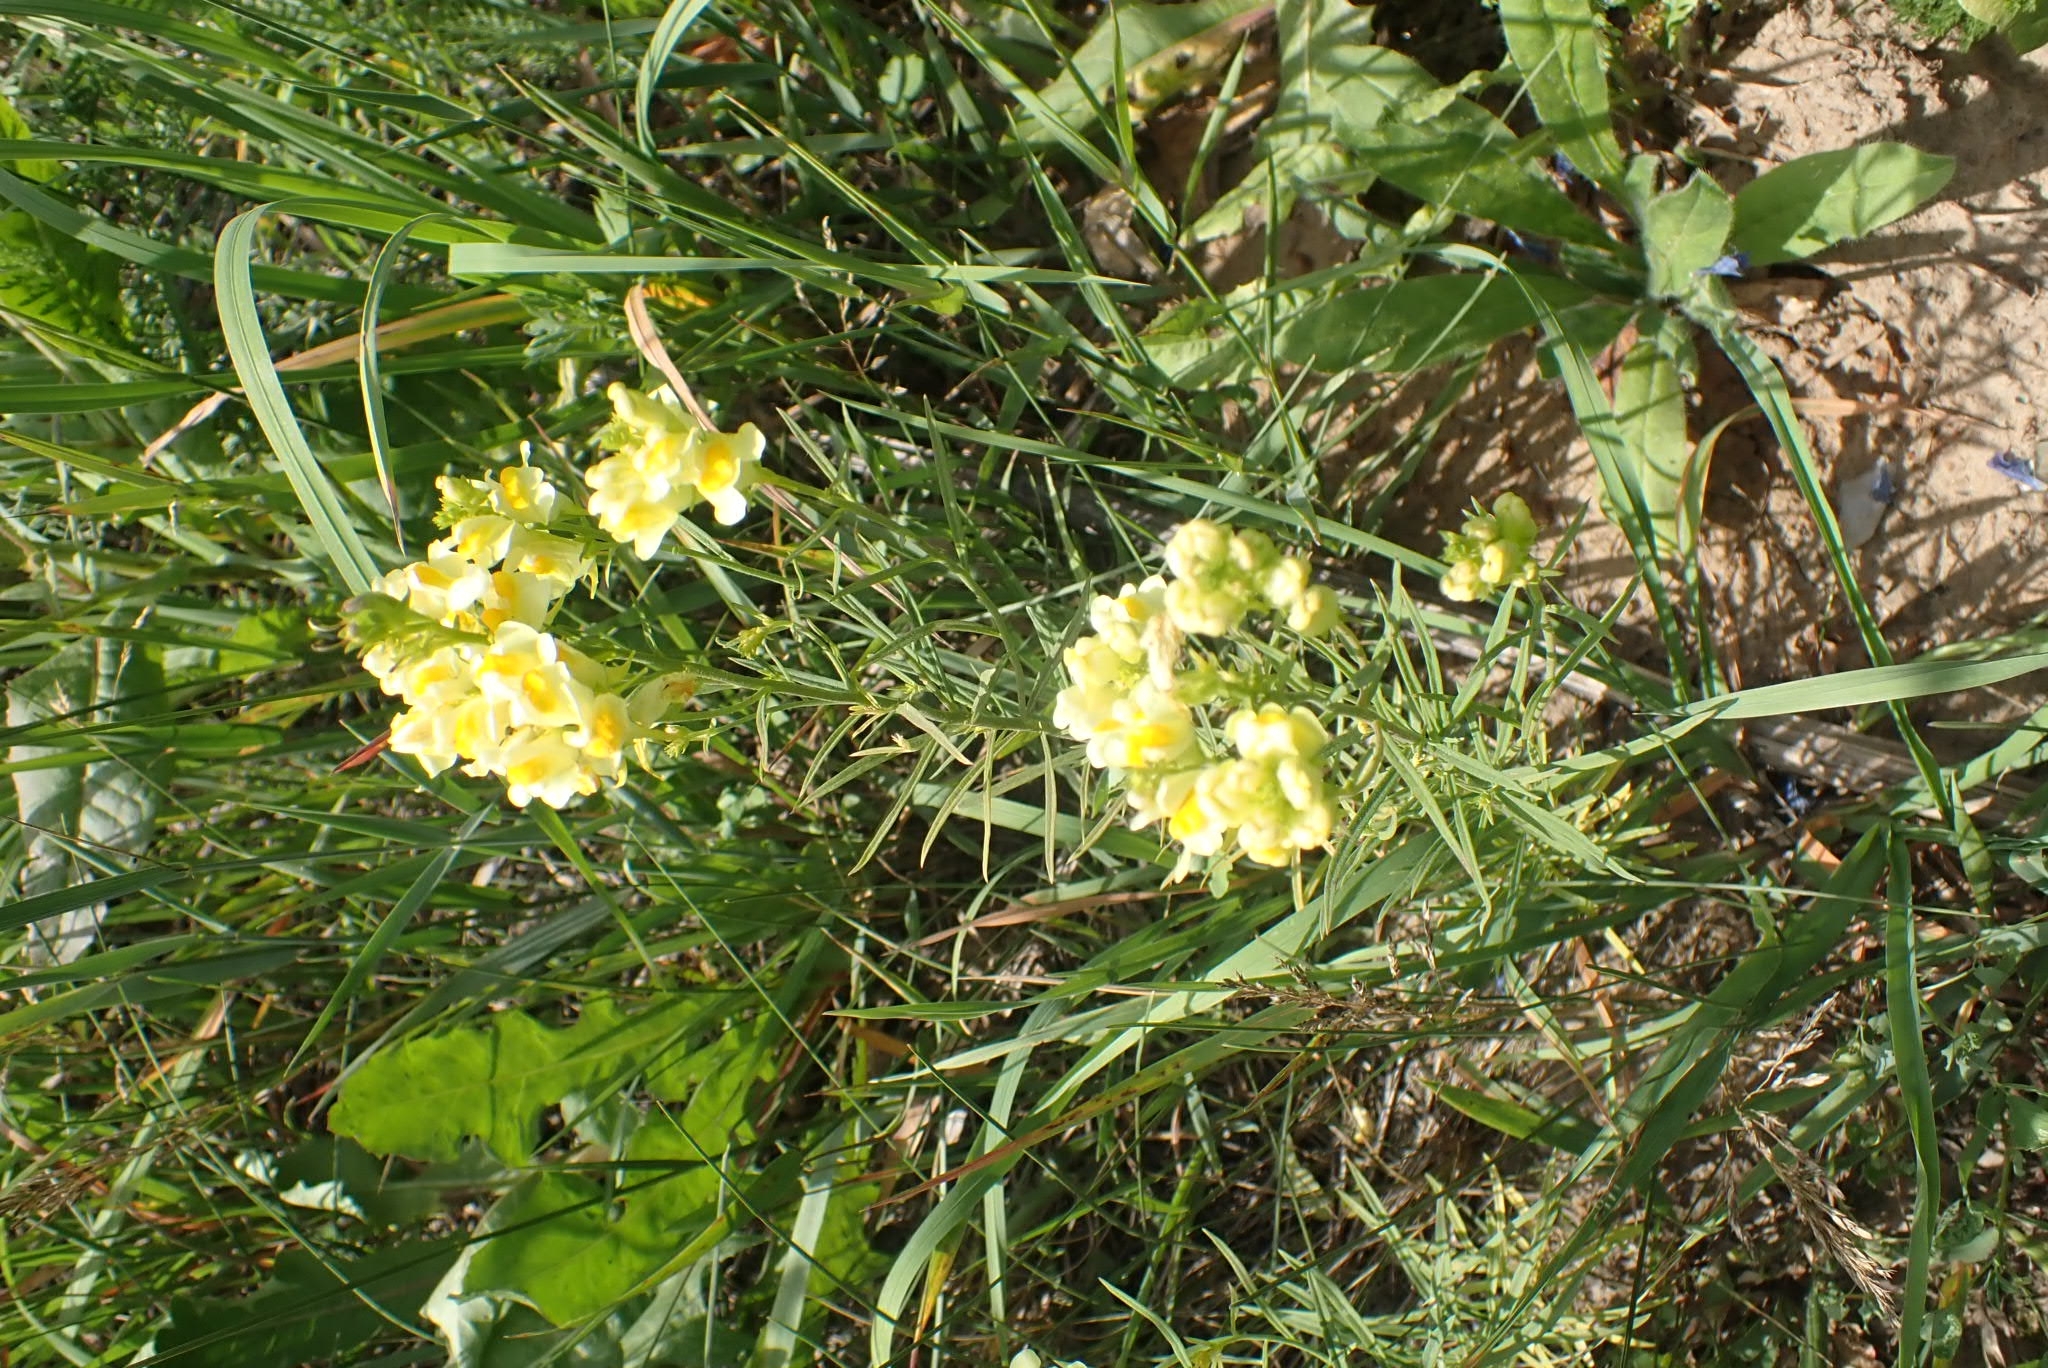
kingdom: Plantae
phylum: Tracheophyta
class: Magnoliopsida
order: Lamiales
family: Plantaginaceae
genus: Linaria
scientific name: Linaria vulgaris
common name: Butter and eggs
